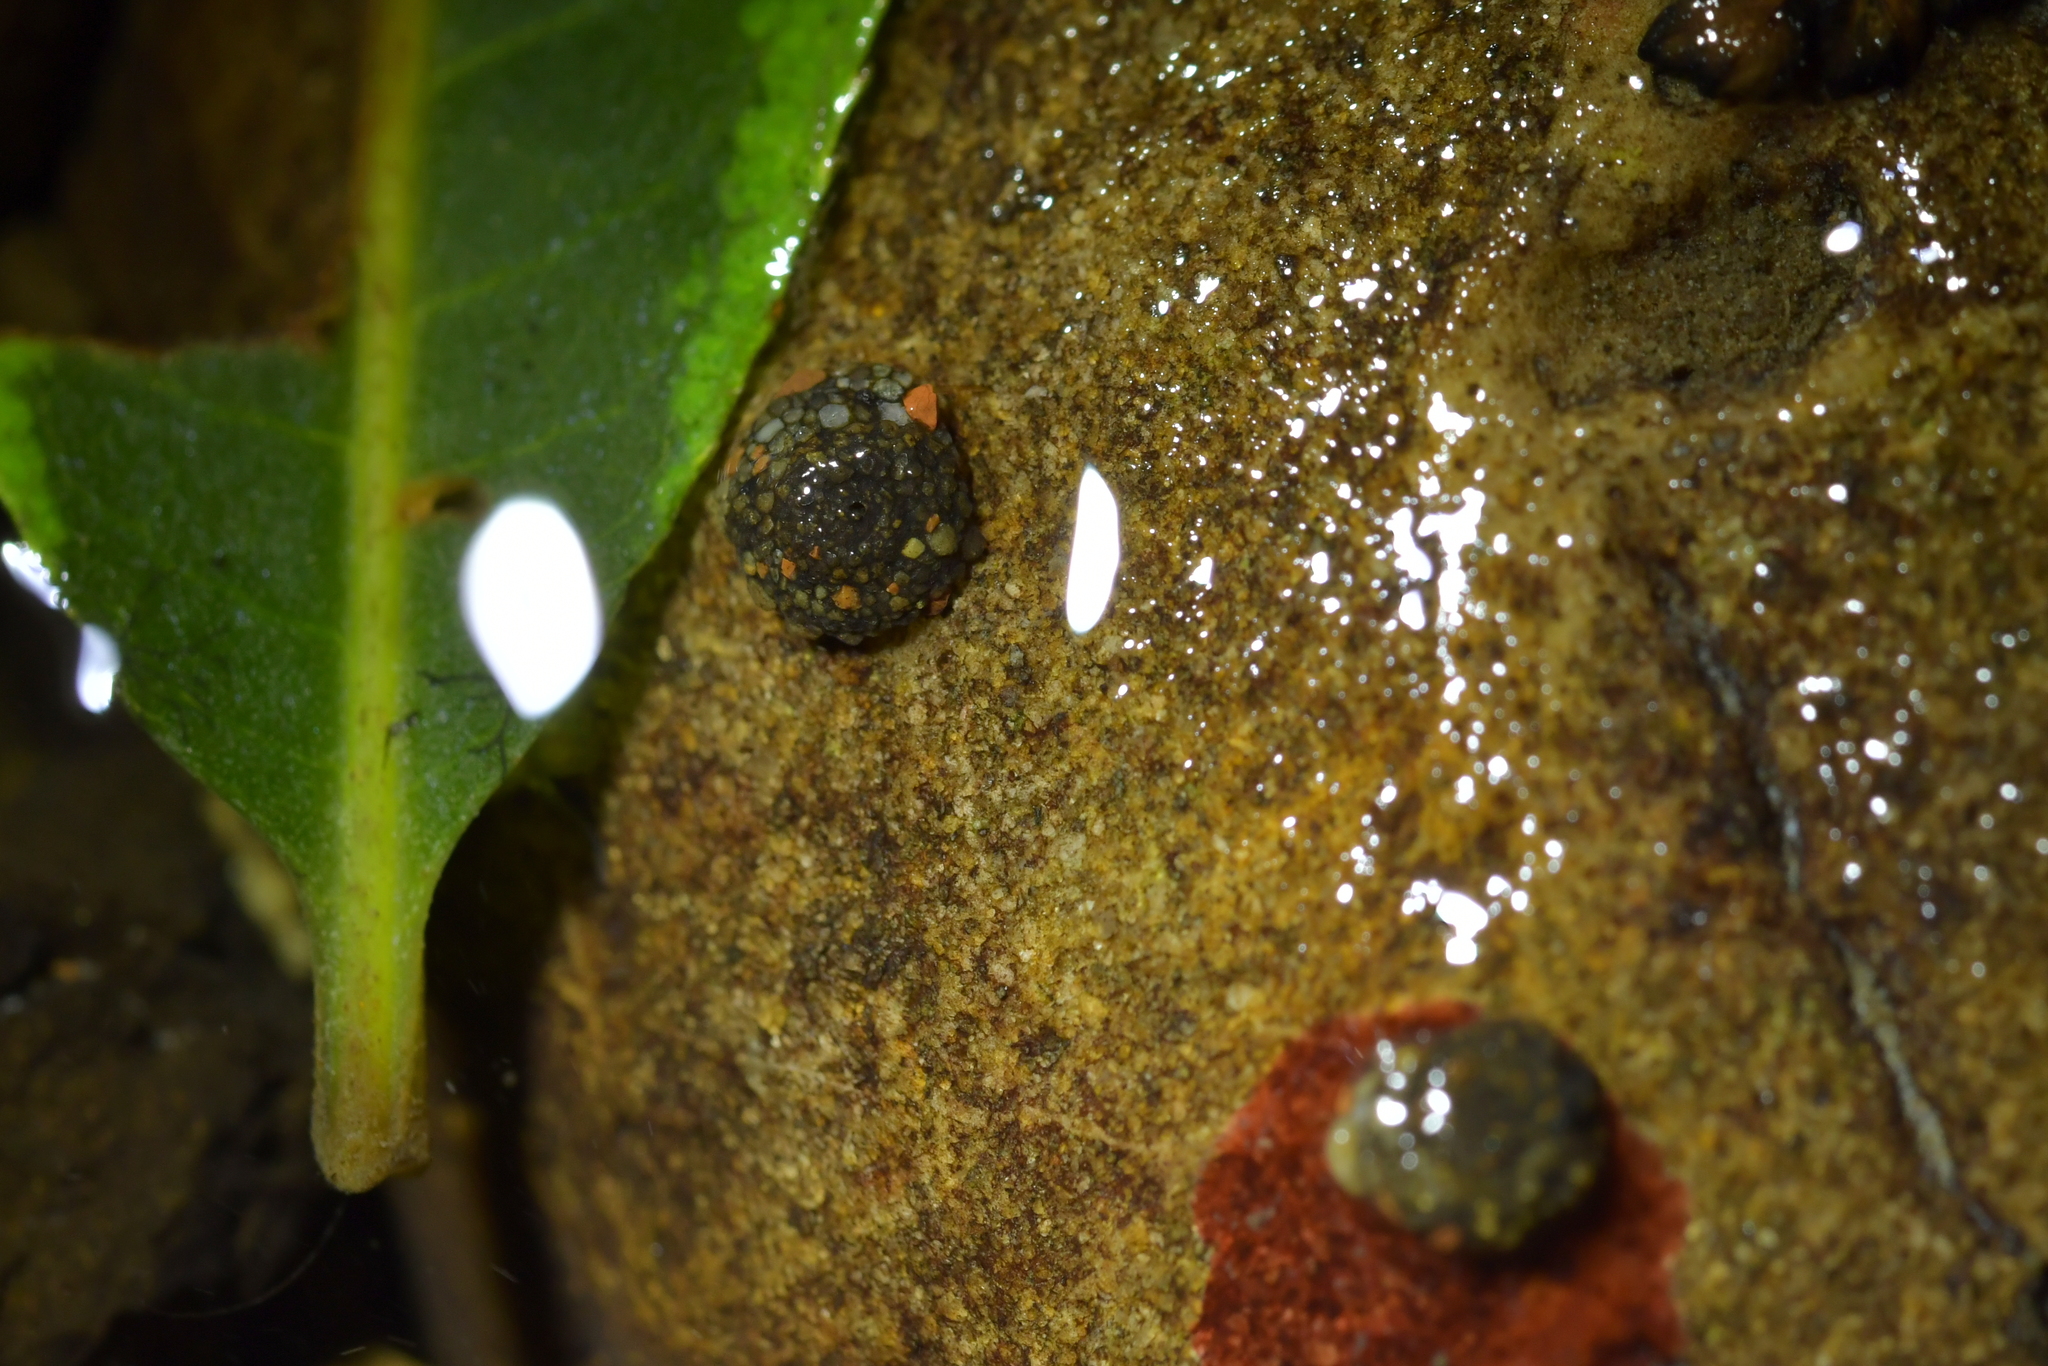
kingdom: Animalia
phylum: Arthropoda
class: Insecta
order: Trichoptera
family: Helicopsychidae
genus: Helicopsyche
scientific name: Helicopsyche
